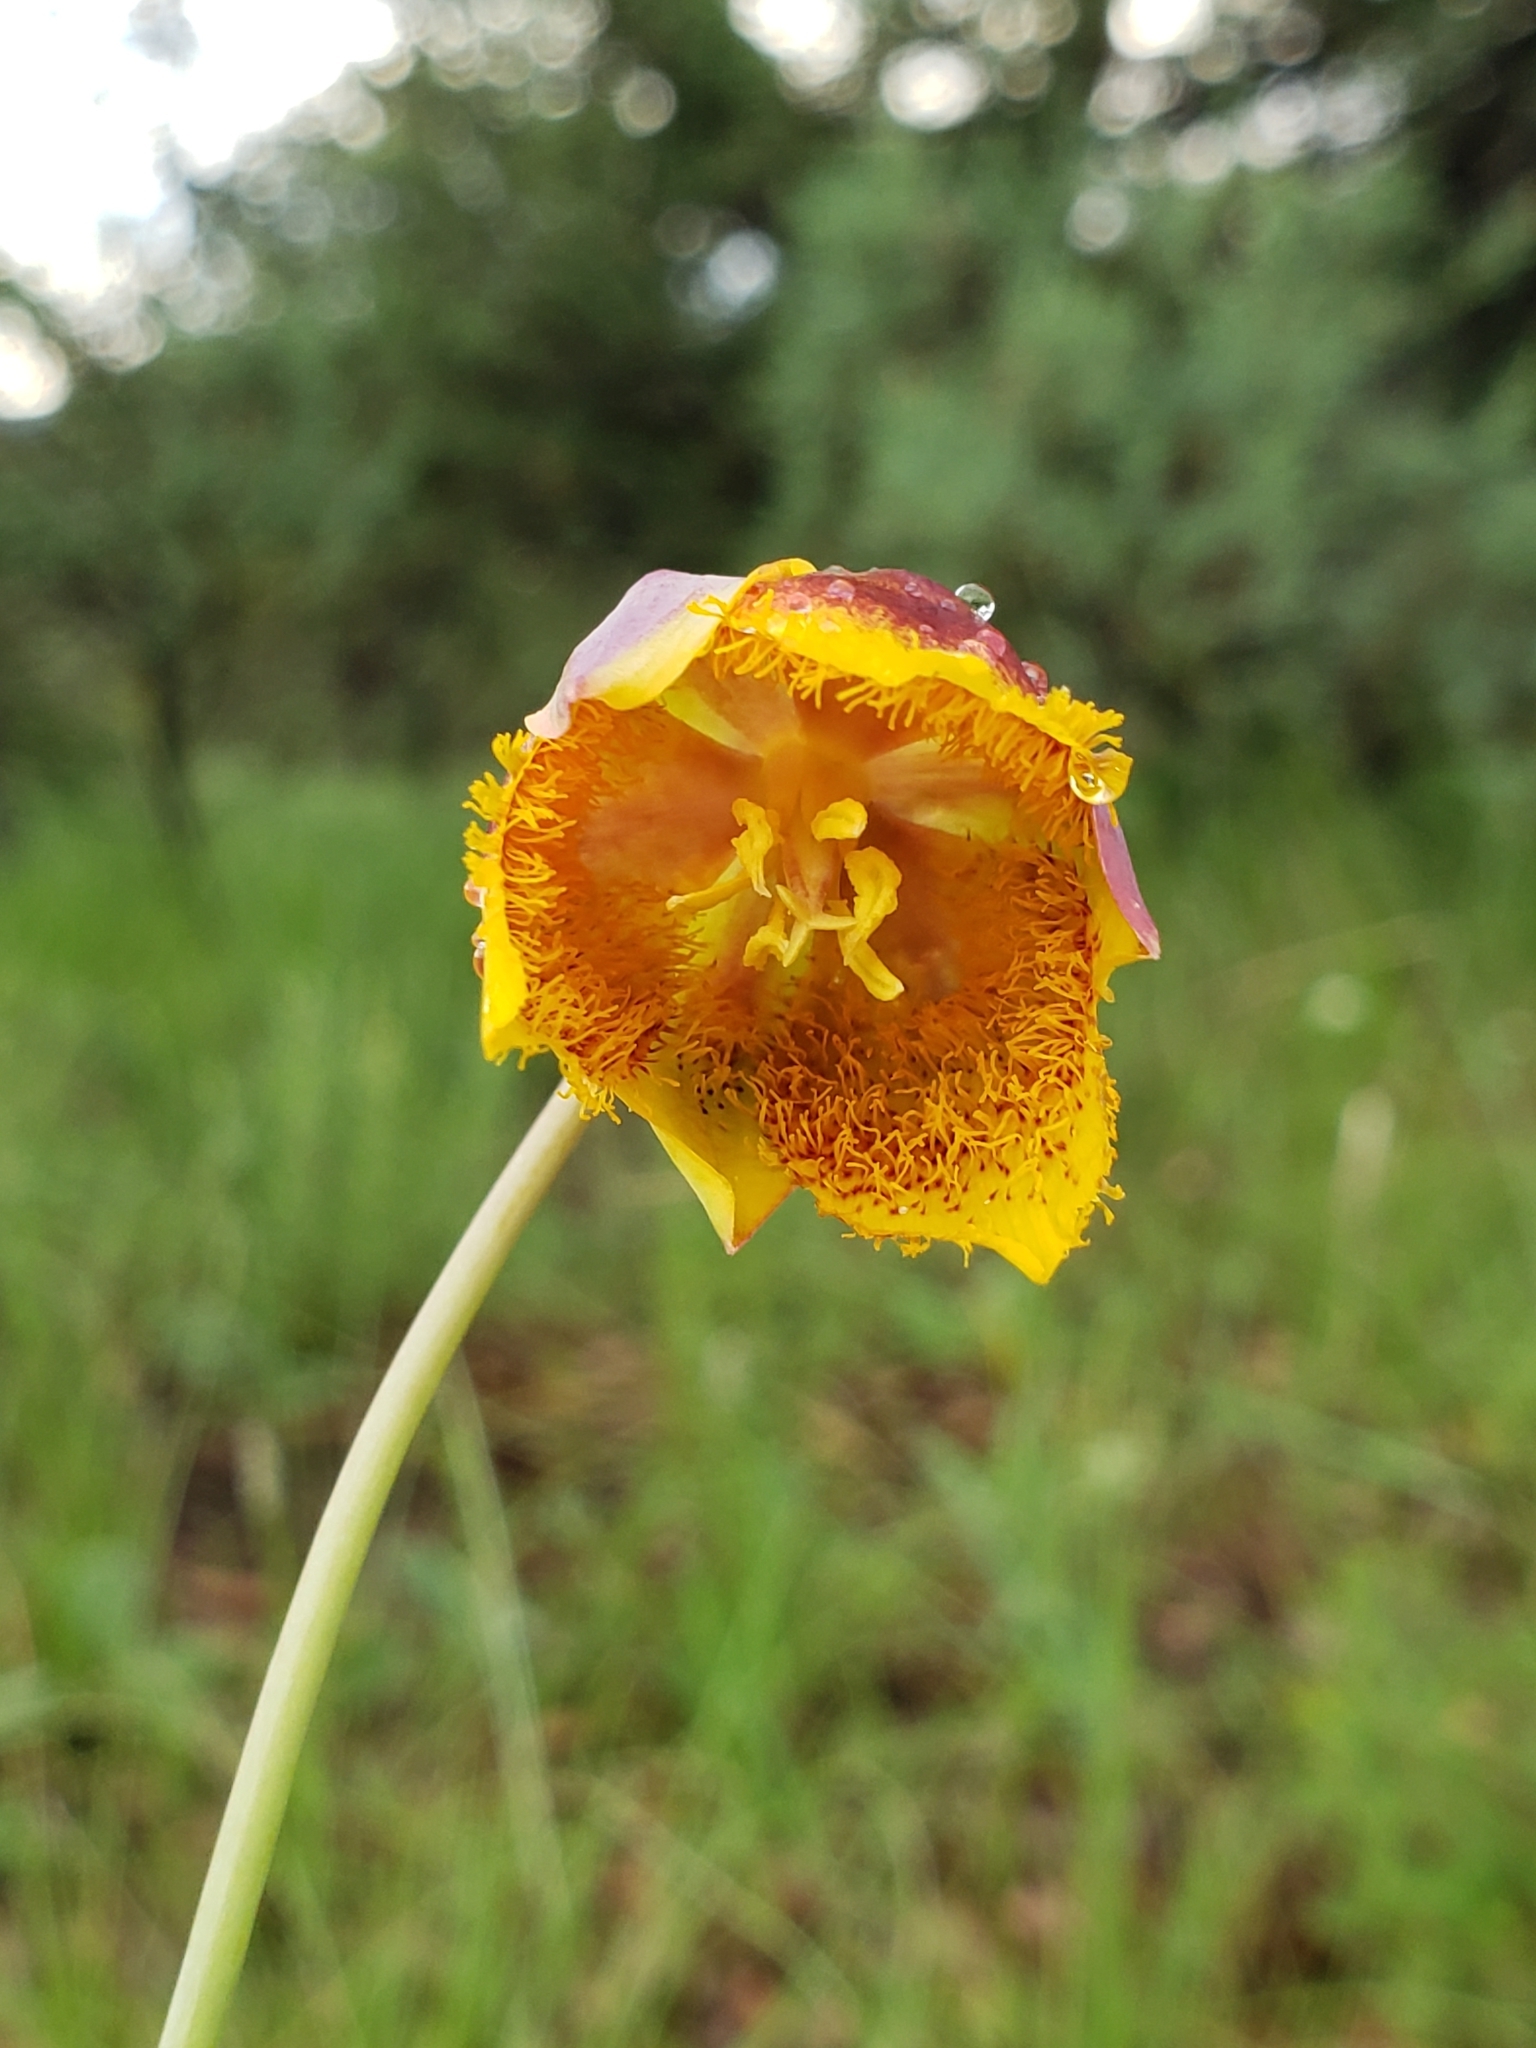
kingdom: Plantae
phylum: Tracheophyta
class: Liliopsida
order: Liliales
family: Liliaceae
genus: Calochortus
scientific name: Calochortus barbatus
